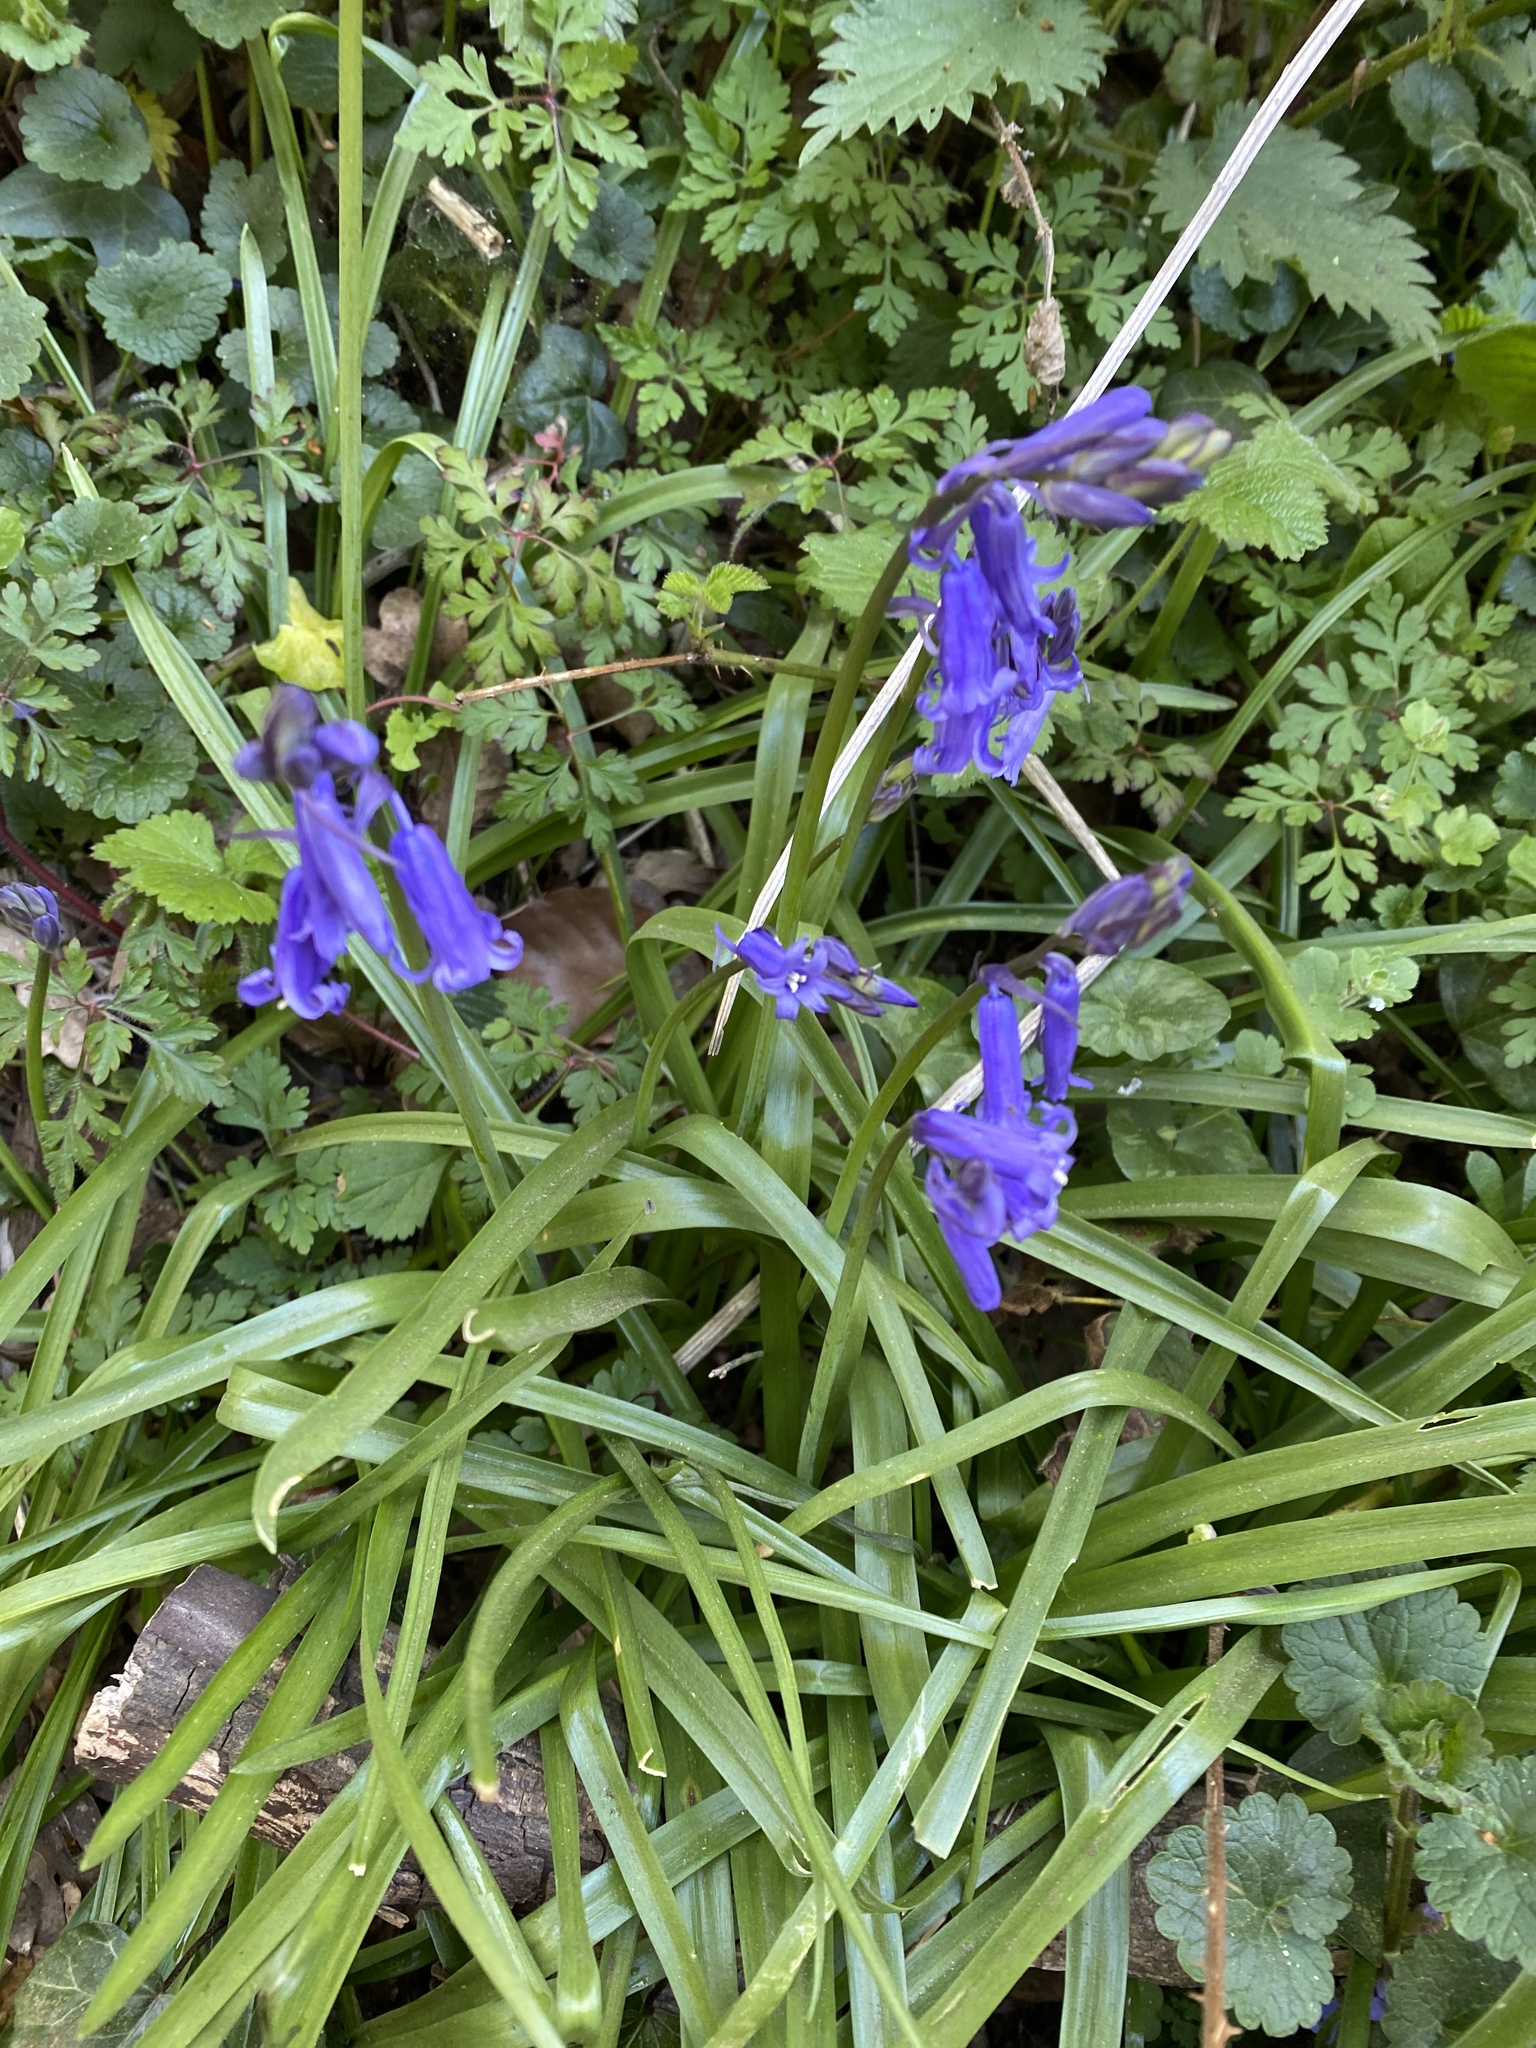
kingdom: Plantae
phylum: Tracheophyta
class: Liliopsida
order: Asparagales
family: Asparagaceae
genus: Hyacinthoides
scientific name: Hyacinthoides non-scripta
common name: Bluebell
